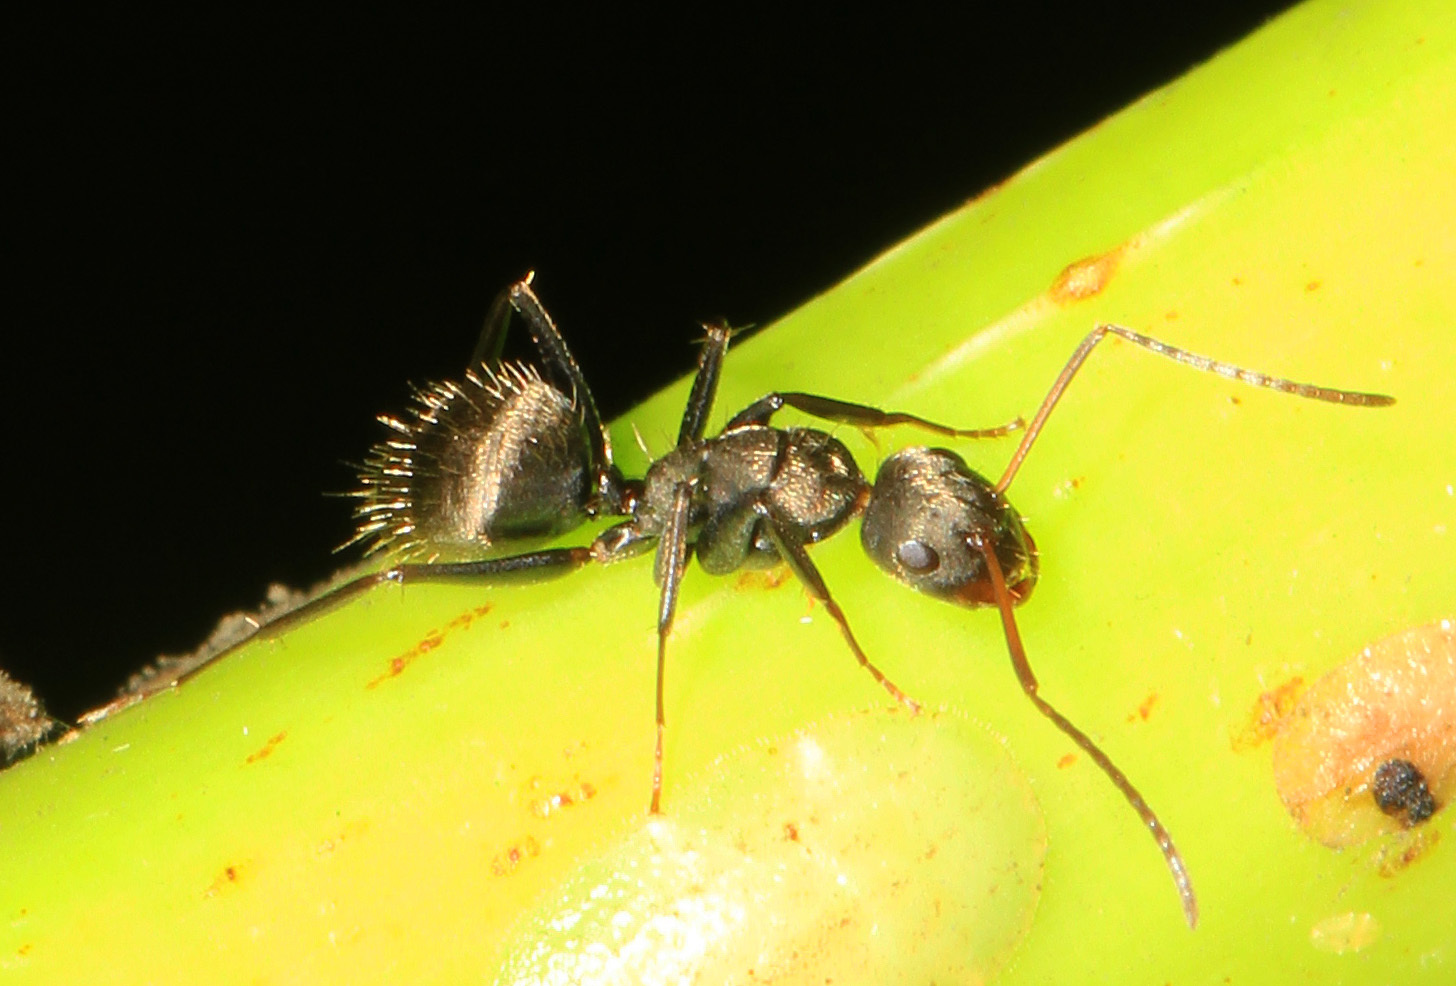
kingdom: Animalia
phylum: Arthropoda
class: Insecta
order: Hymenoptera
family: Formicidae
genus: Camponotus
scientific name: Camponotus novogranadensis
